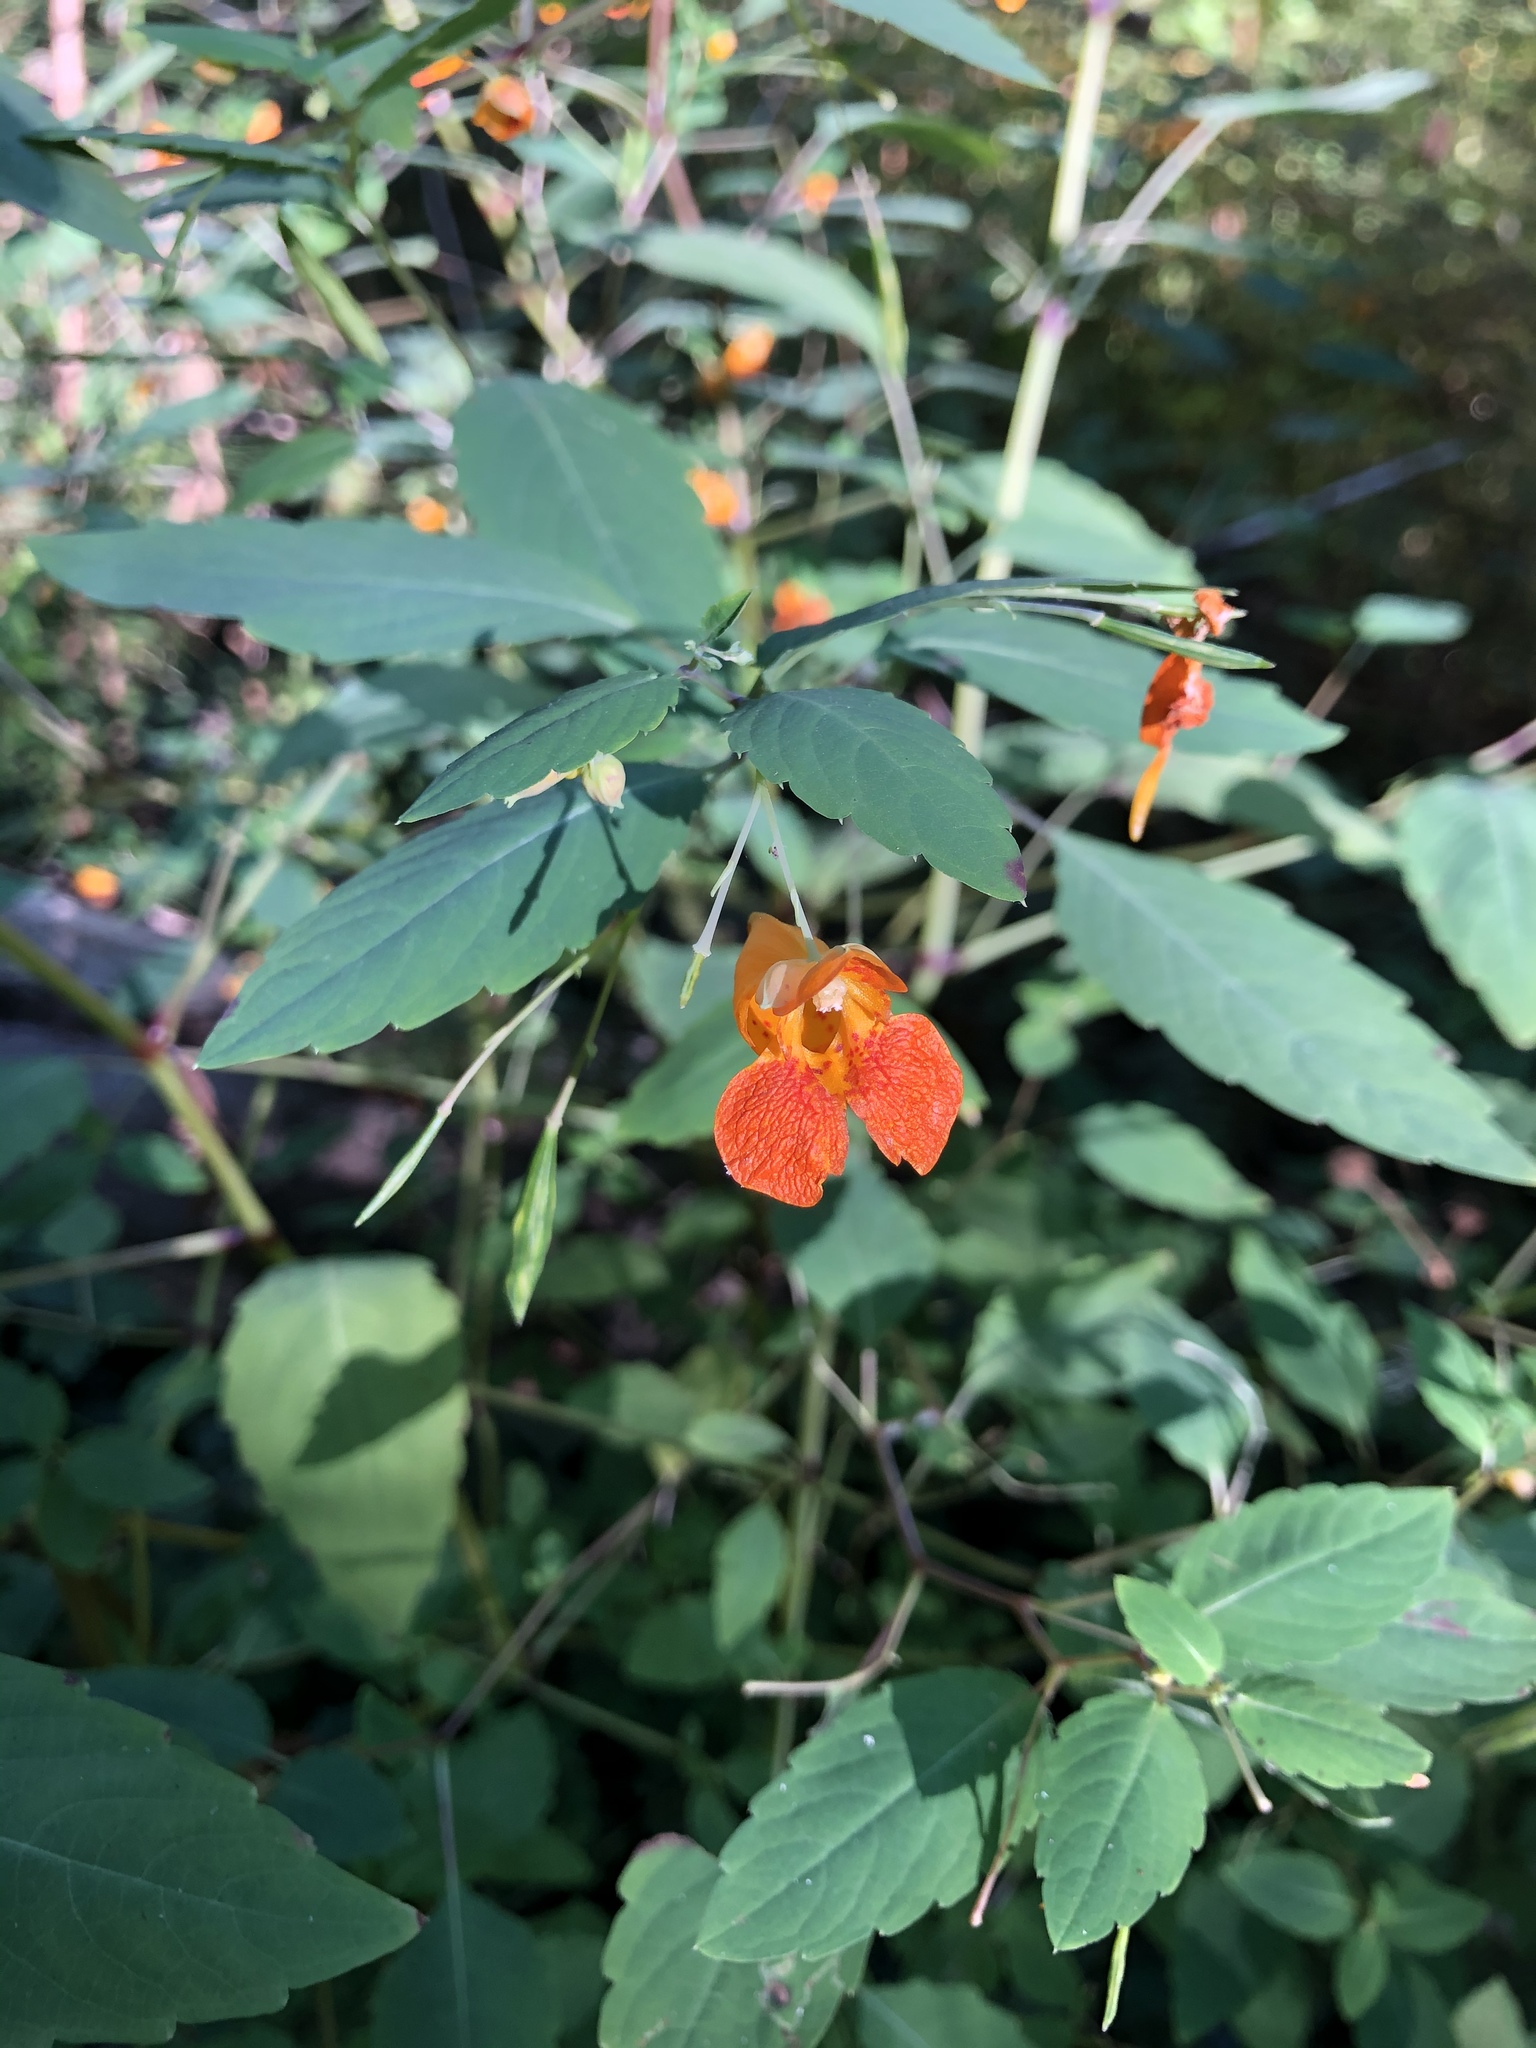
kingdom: Plantae
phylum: Tracheophyta
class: Magnoliopsida
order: Ericales
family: Balsaminaceae
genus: Impatiens
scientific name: Impatiens capensis
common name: Orange balsam
